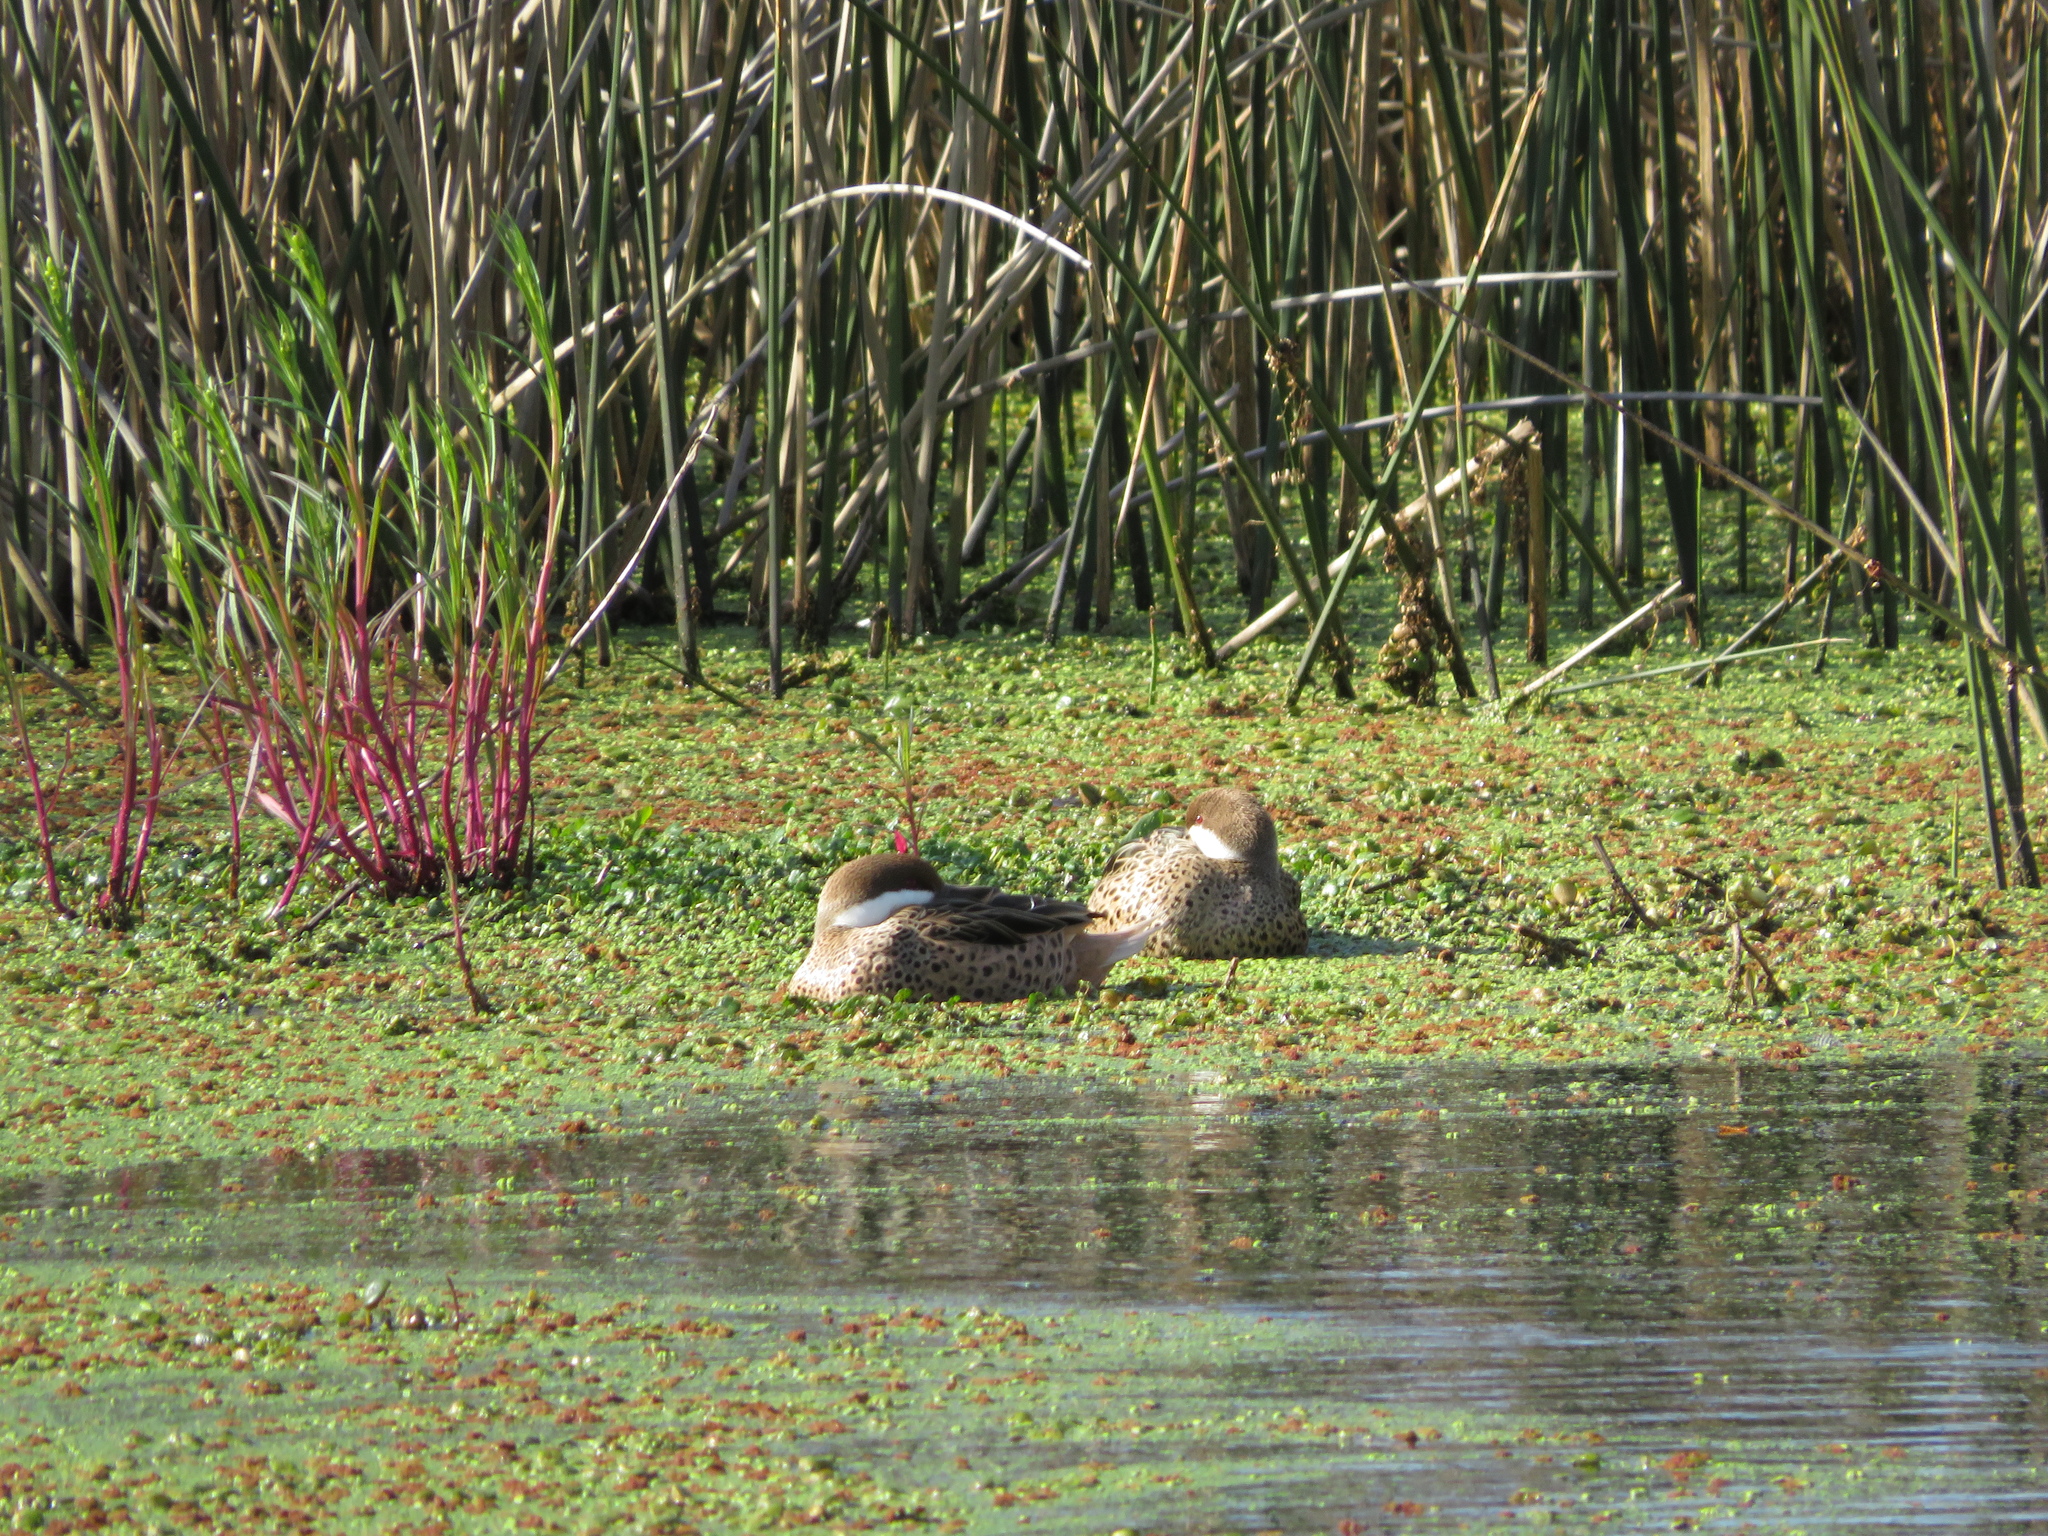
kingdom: Animalia
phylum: Chordata
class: Aves
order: Anseriformes
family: Anatidae
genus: Anas
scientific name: Anas bahamensis
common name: White-cheeked pintail
